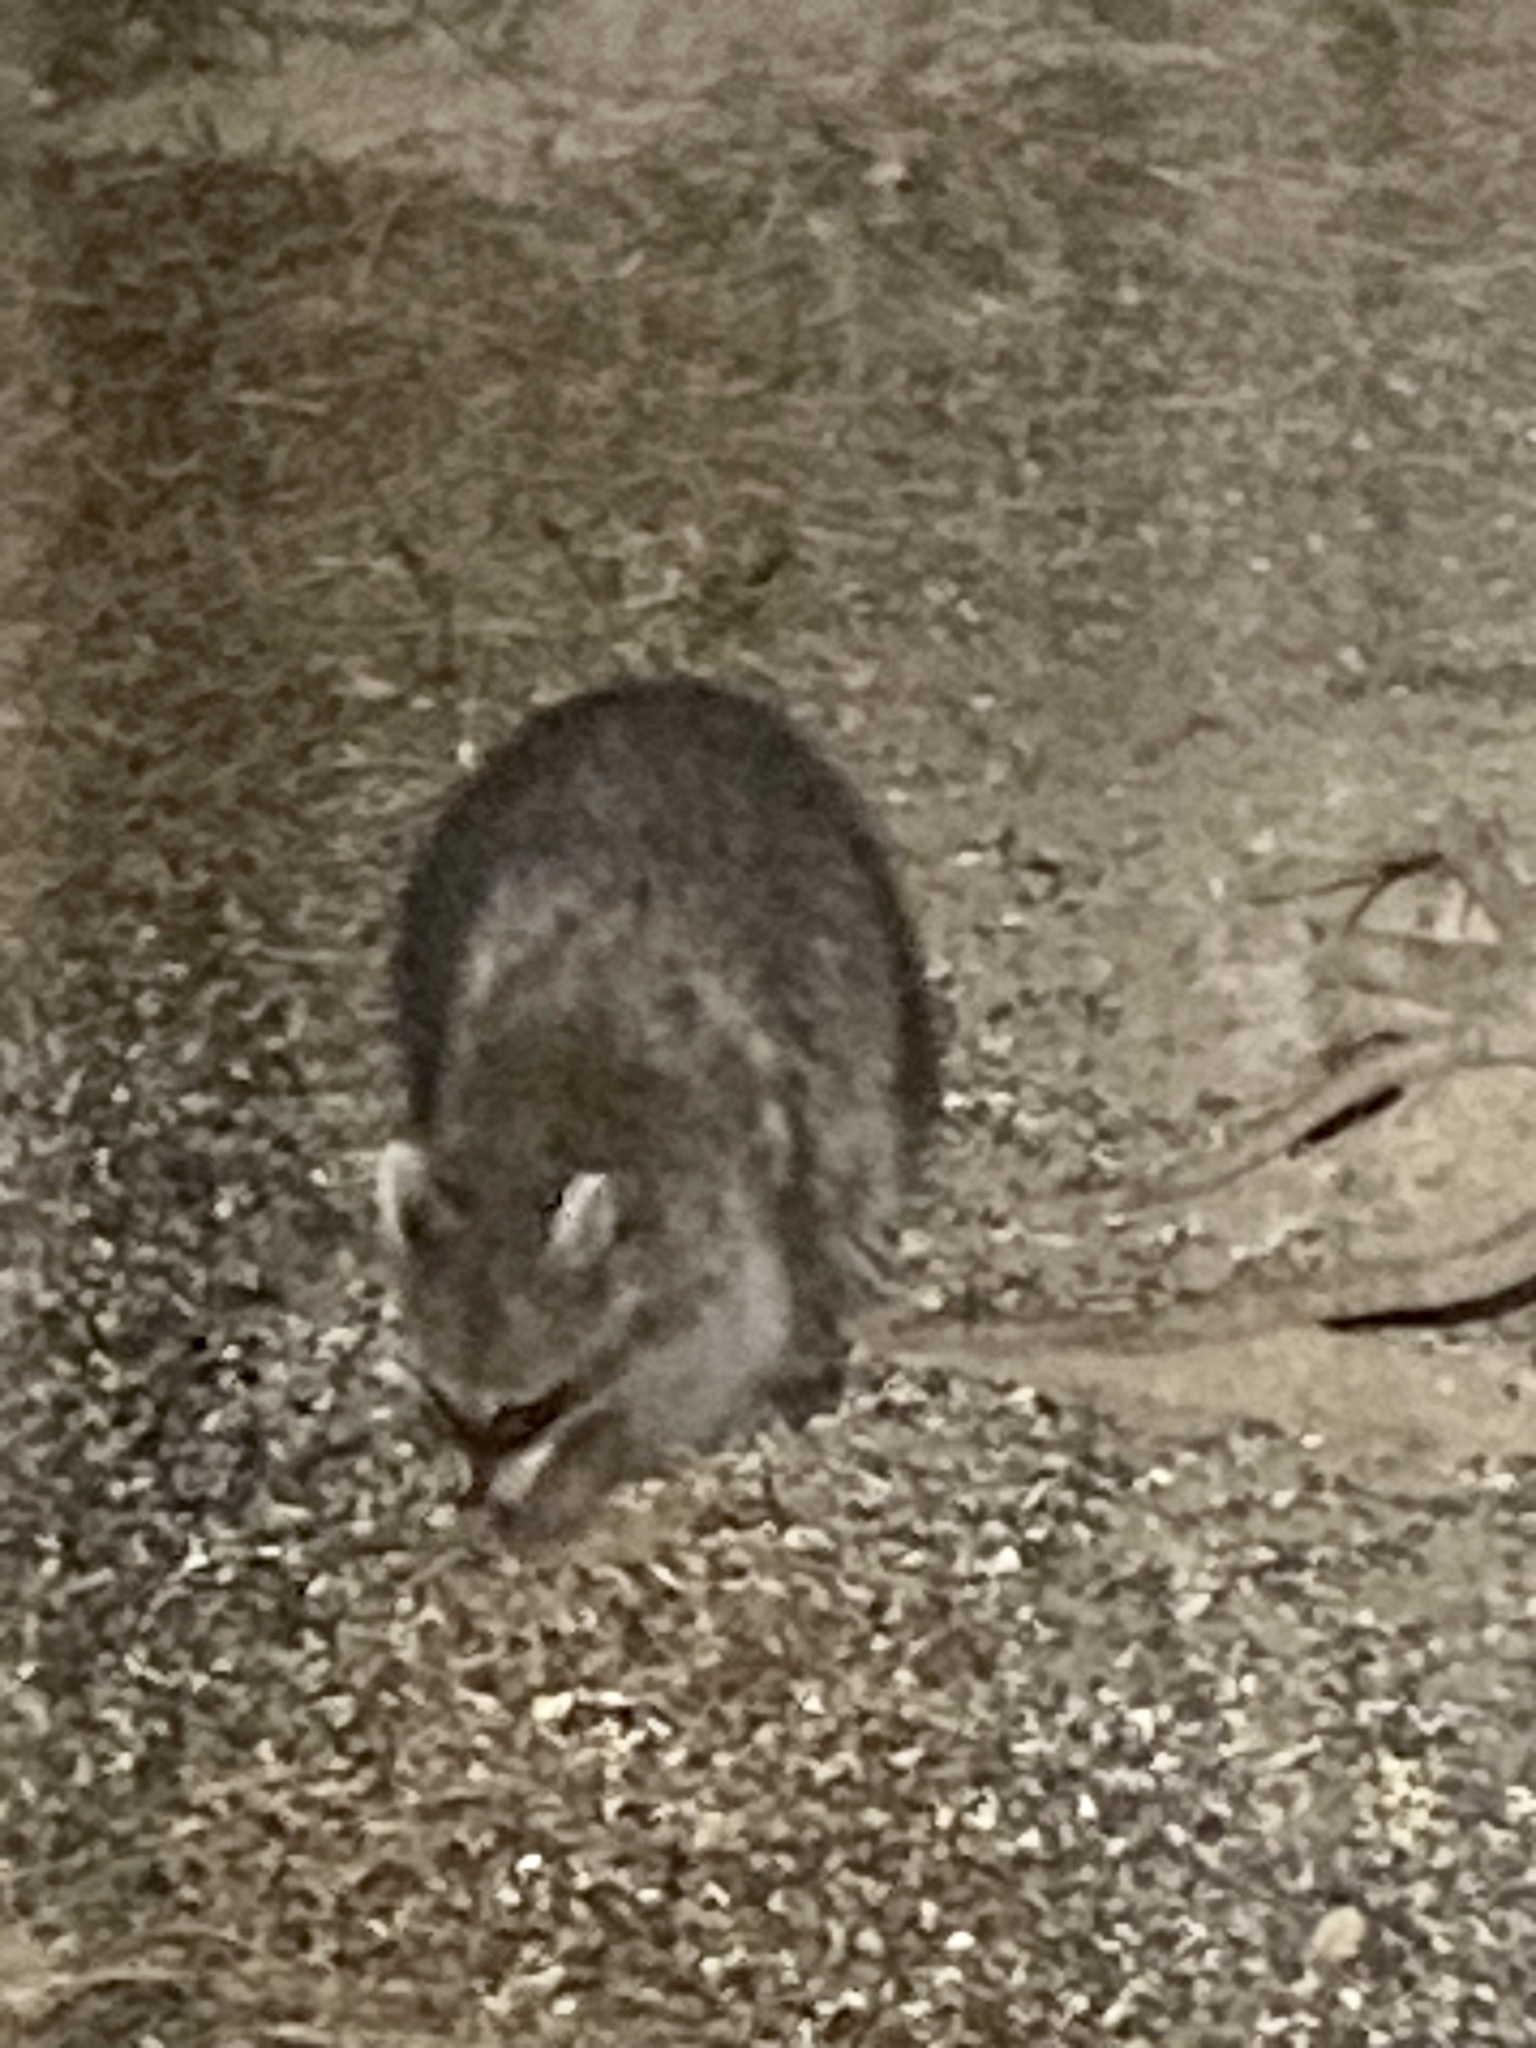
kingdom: Animalia
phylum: Chordata
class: Mammalia
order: Carnivora
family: Procyonidae
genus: Procyon
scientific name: Procyon lotor
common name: Raccoon
